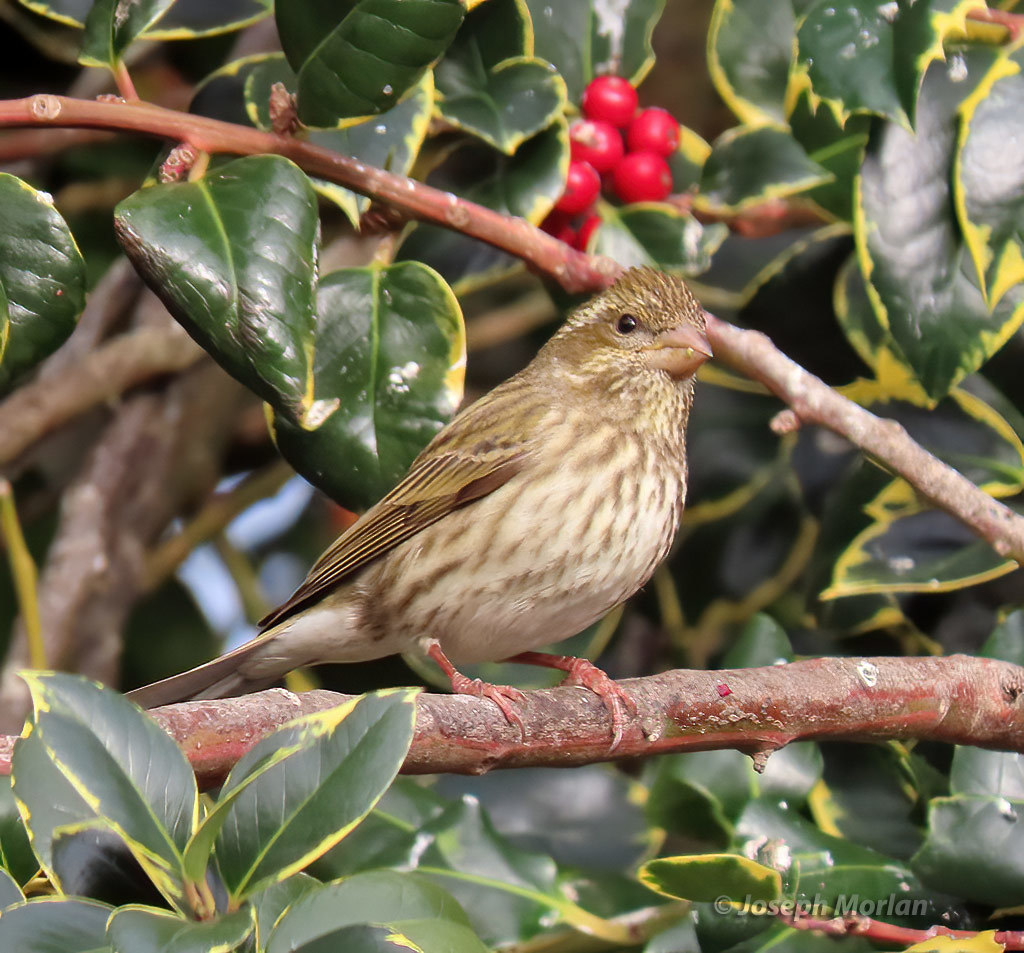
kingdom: Animalia
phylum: Chordata
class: Aves
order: Passeriformes
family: Fringillidae
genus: Haemorhous
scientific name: Haemorhous purpureus
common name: Purple finch
